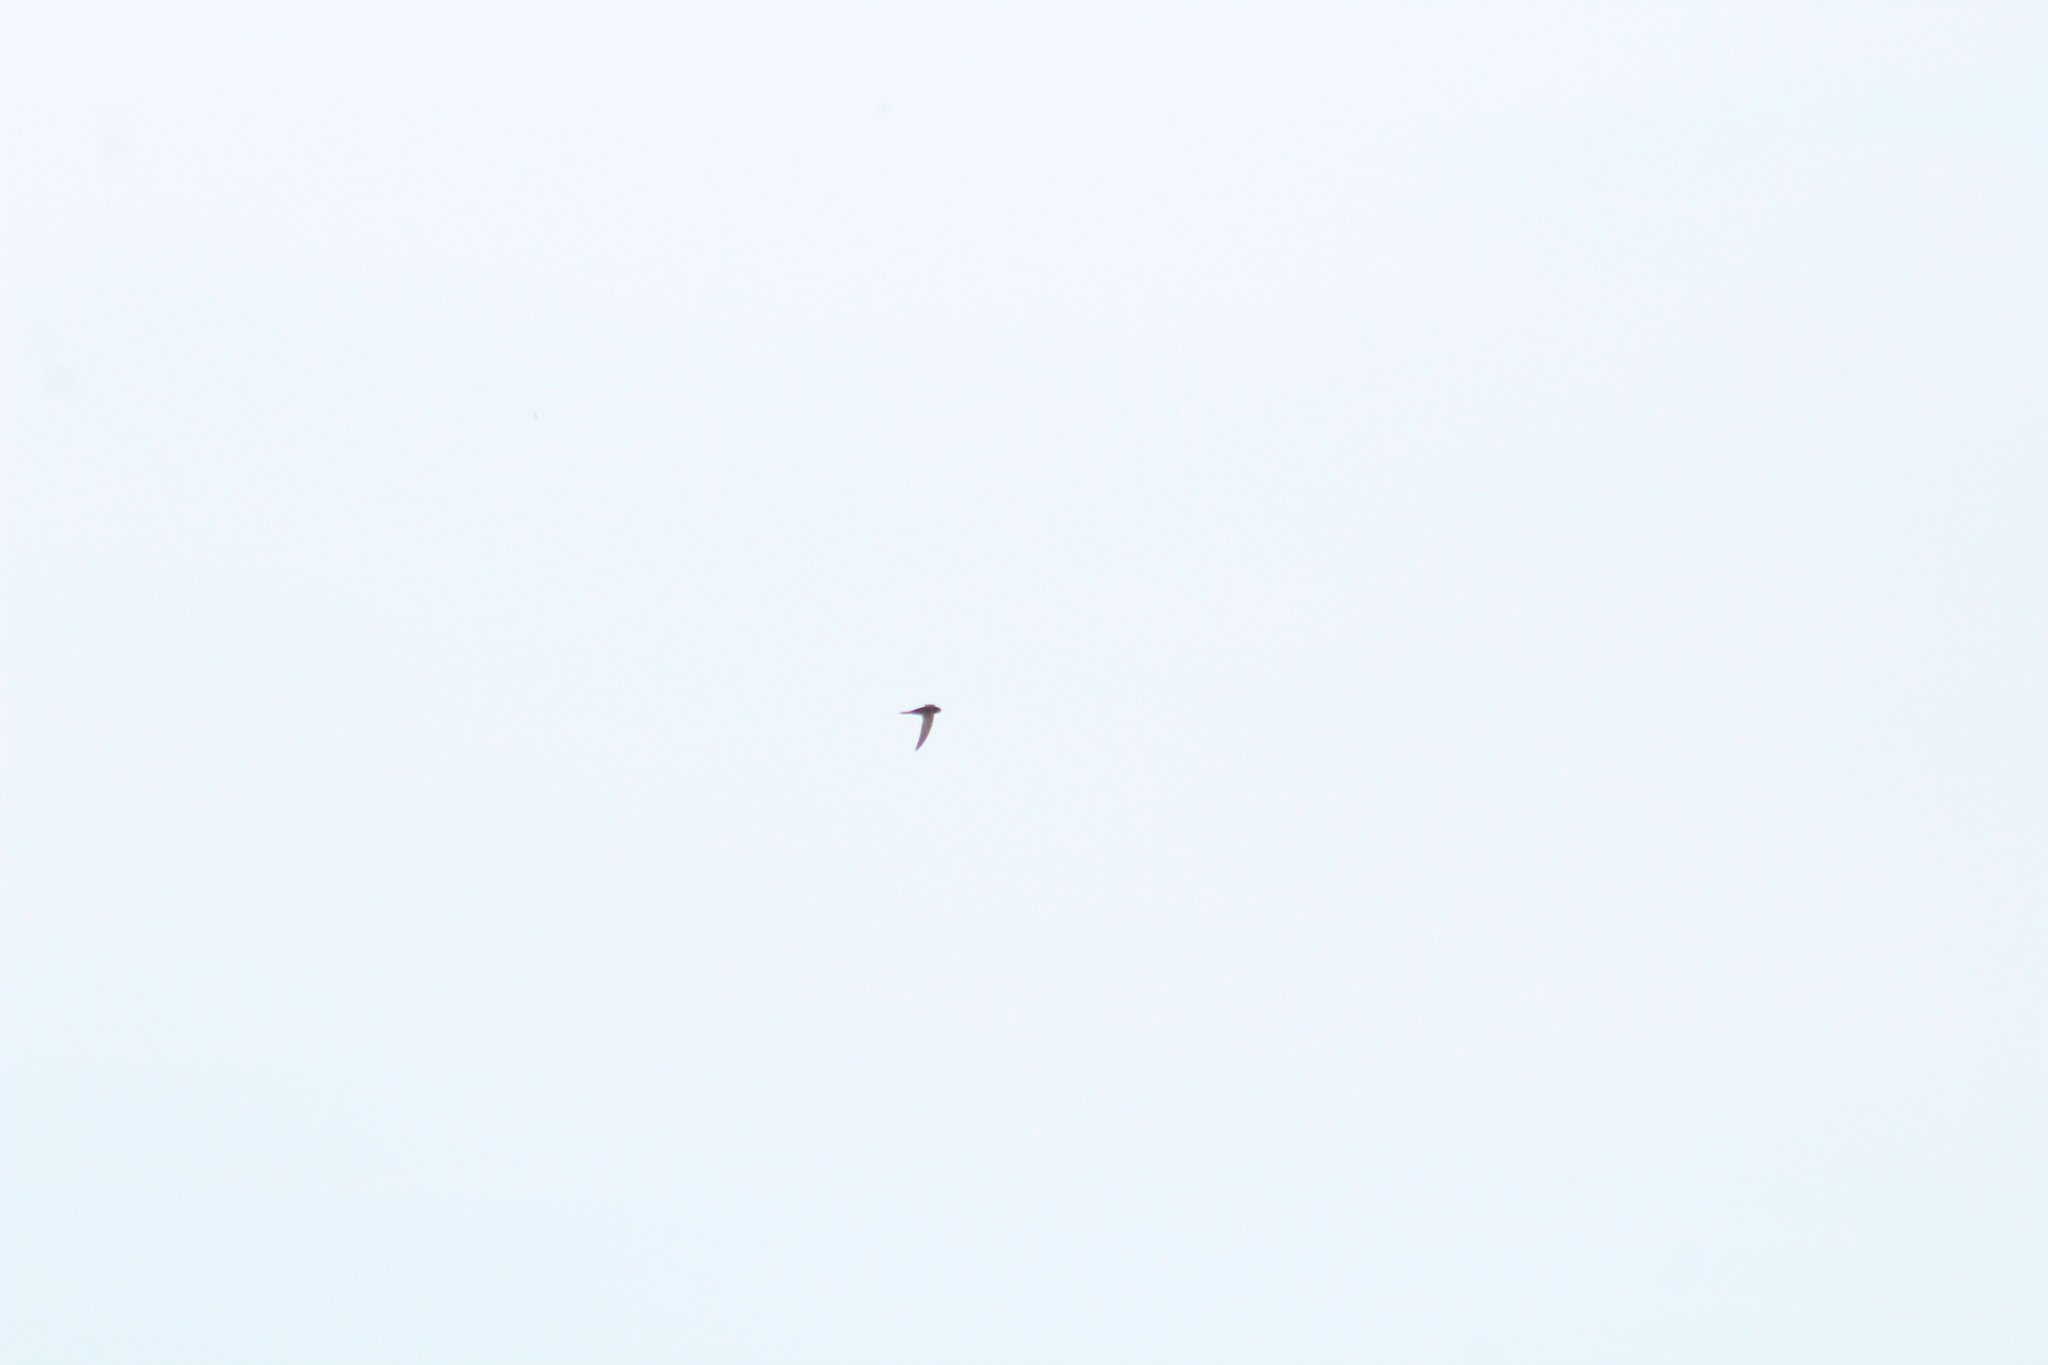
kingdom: Animalia
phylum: Chordata
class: Aves
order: Apodiformes
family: Apodidae
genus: Apus
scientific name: Apus apus
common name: Common swift
